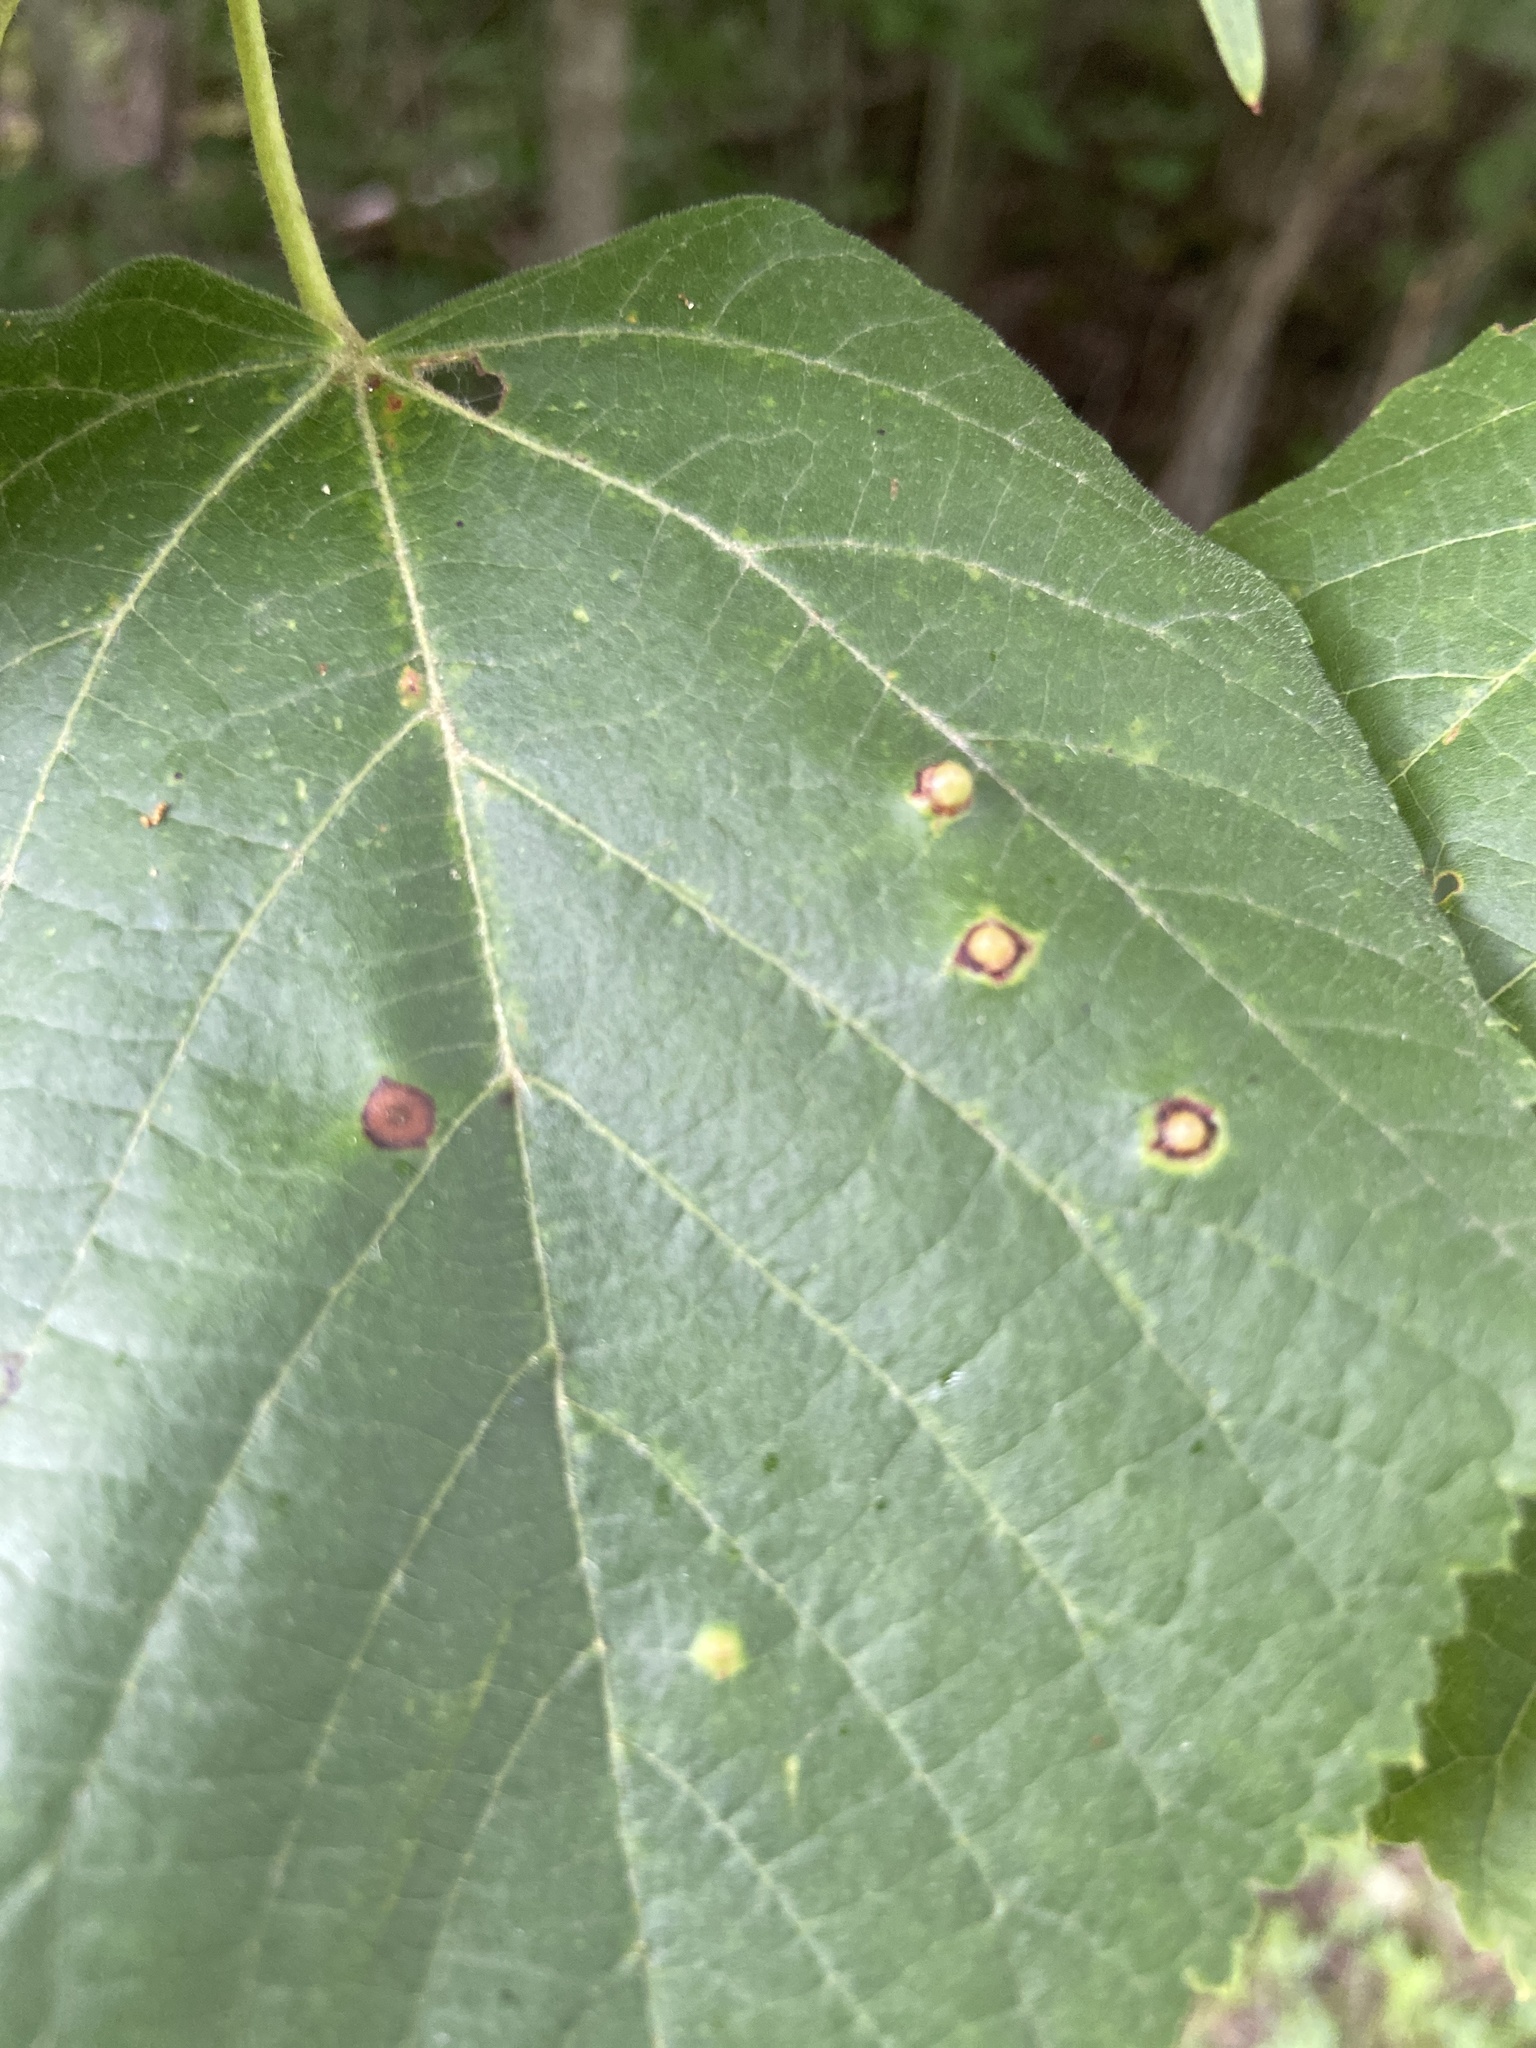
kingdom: Animalia
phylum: Arthropoda
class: Insecta
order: Diptera
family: Cecidomyiidae
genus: Didymomyia
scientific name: Didymomyia tiliacea
